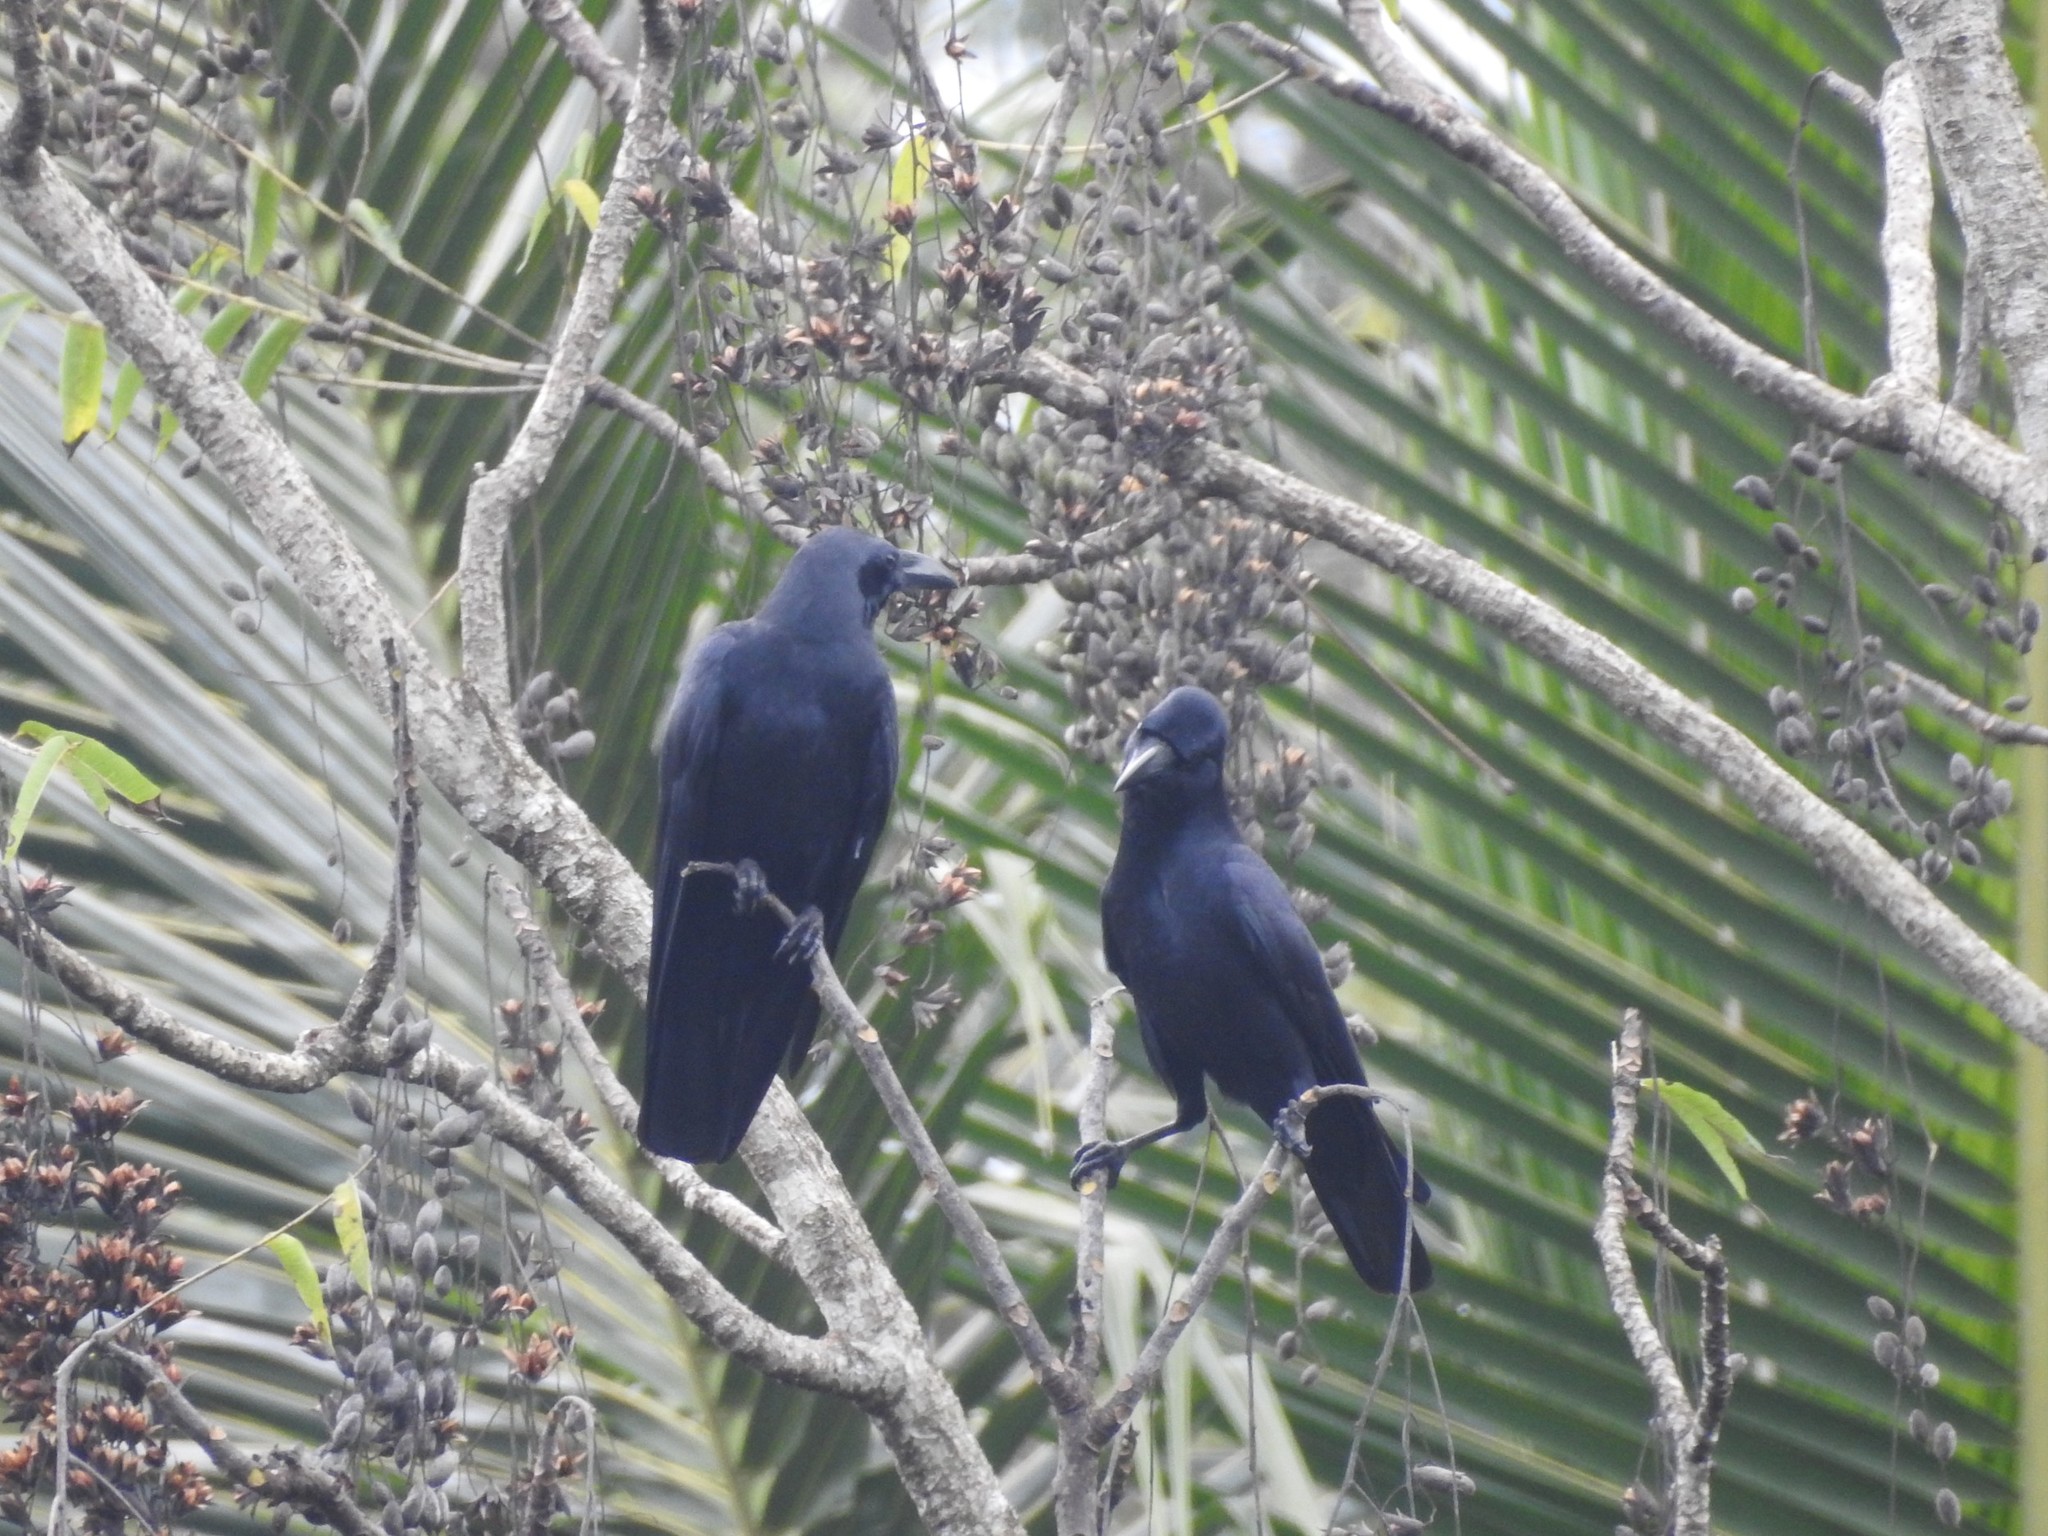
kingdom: Animalia
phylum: Chordata
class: Aves
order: Passeriformes
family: Corvidae
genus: Corvus
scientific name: Corvus macrorhynchos
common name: Large-billed crow
